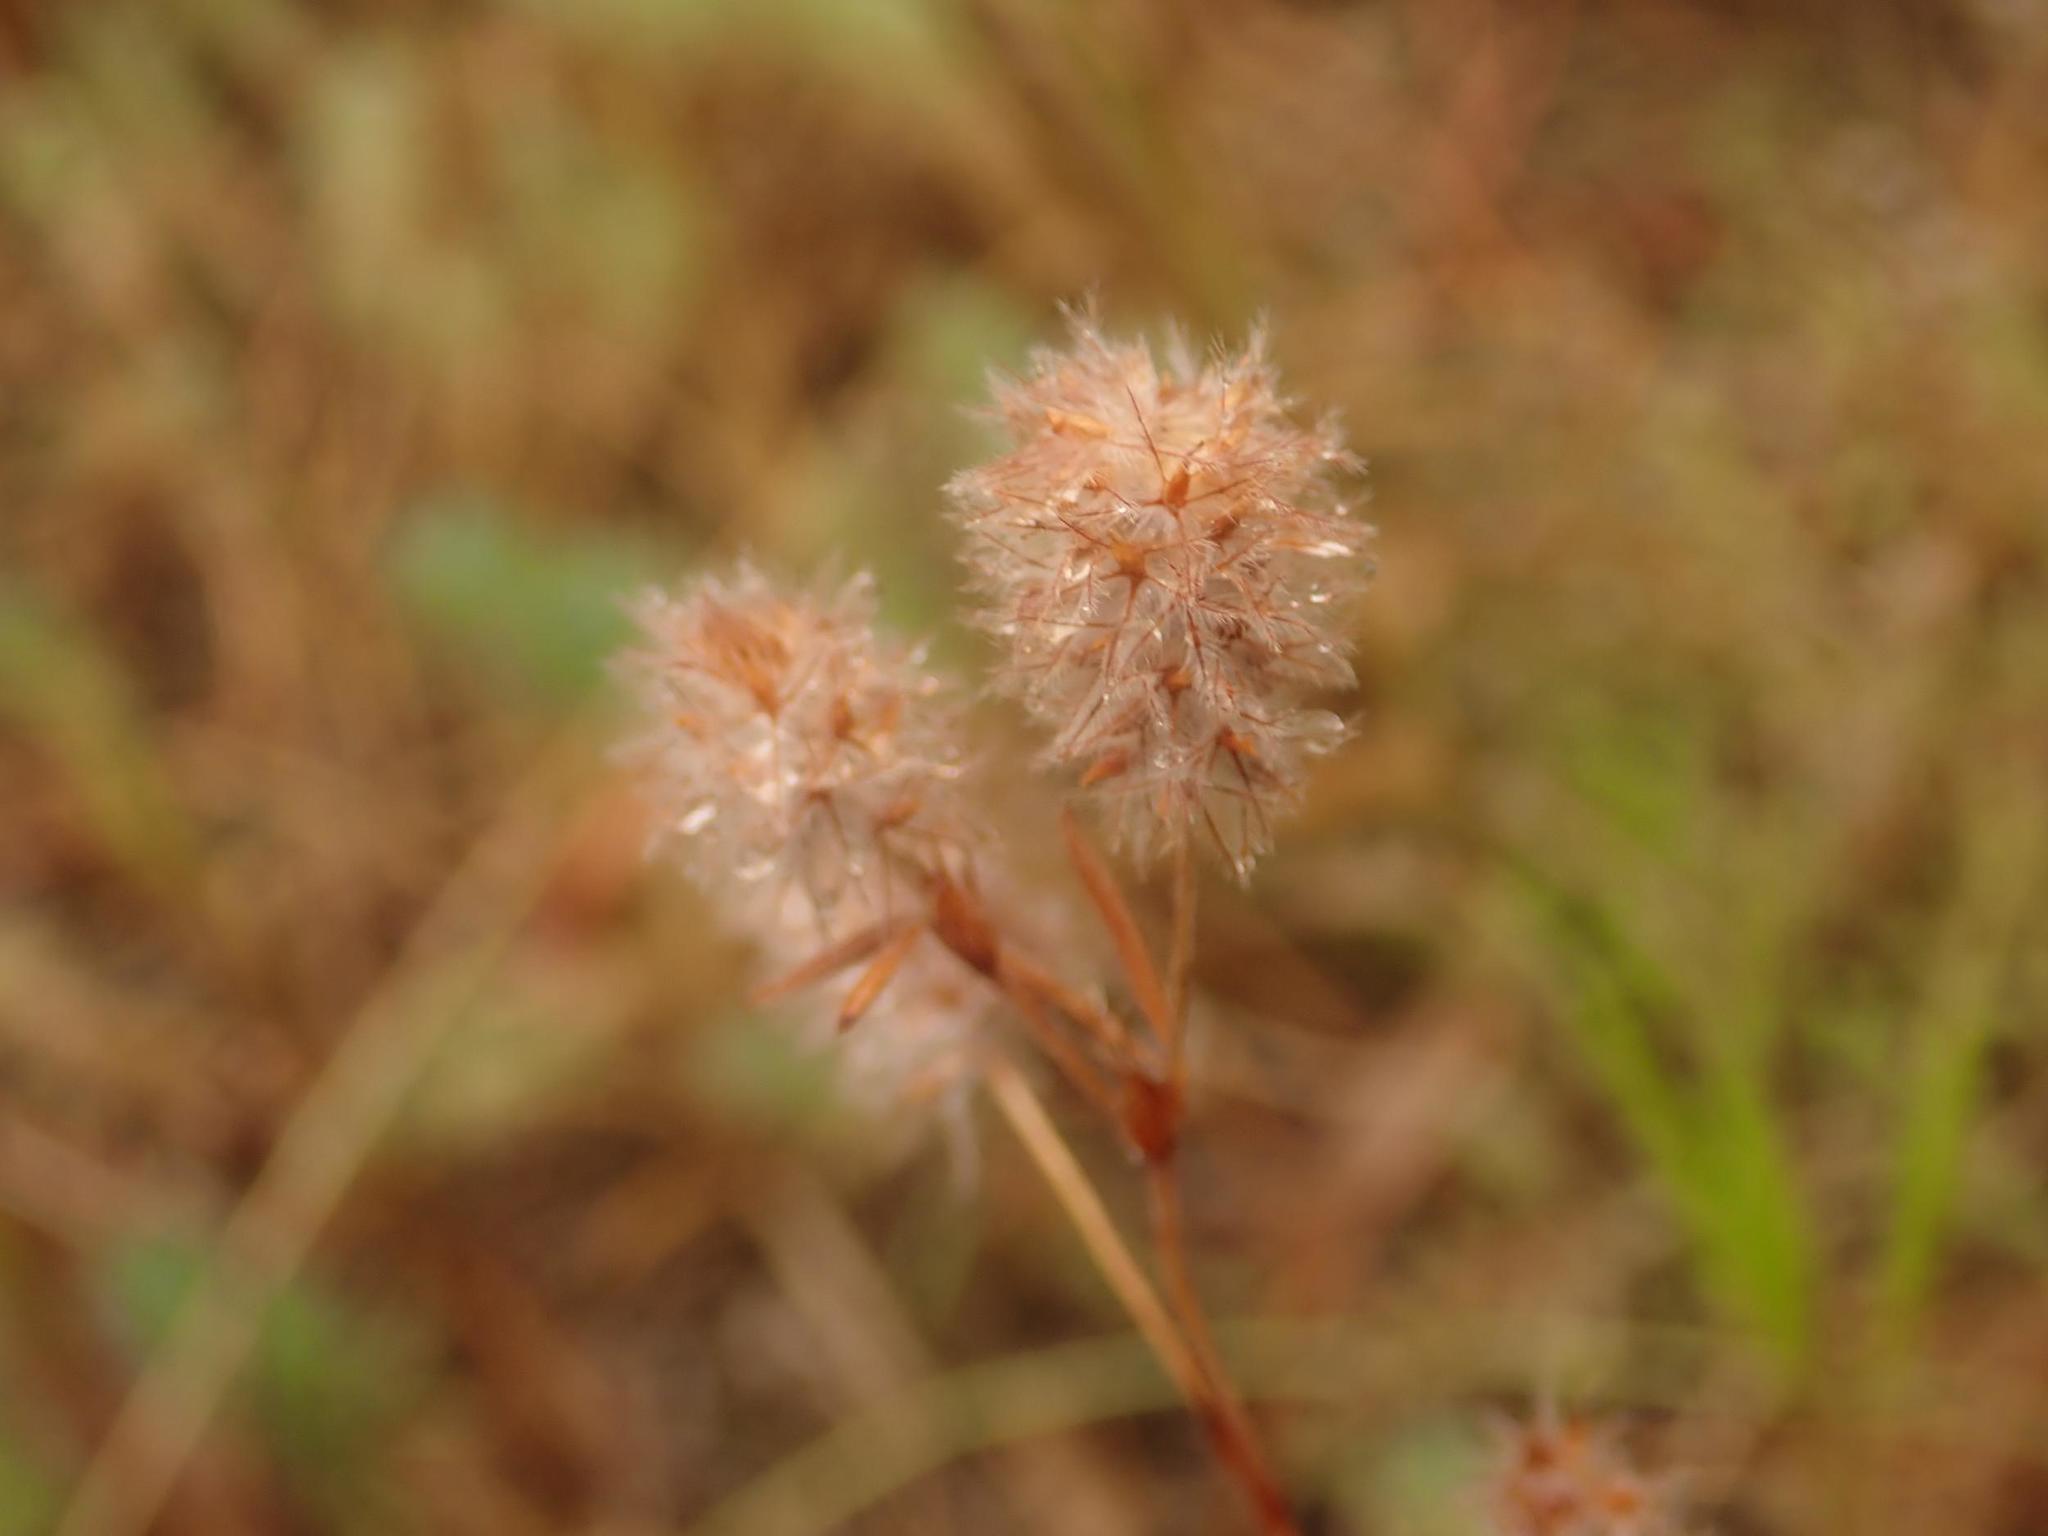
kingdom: Plantae
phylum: Tracheophyta
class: Magnoliopsida
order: Fabales
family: Fabaceae
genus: Trifolium
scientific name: Trifolium arvense
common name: Hare's-foot clover
